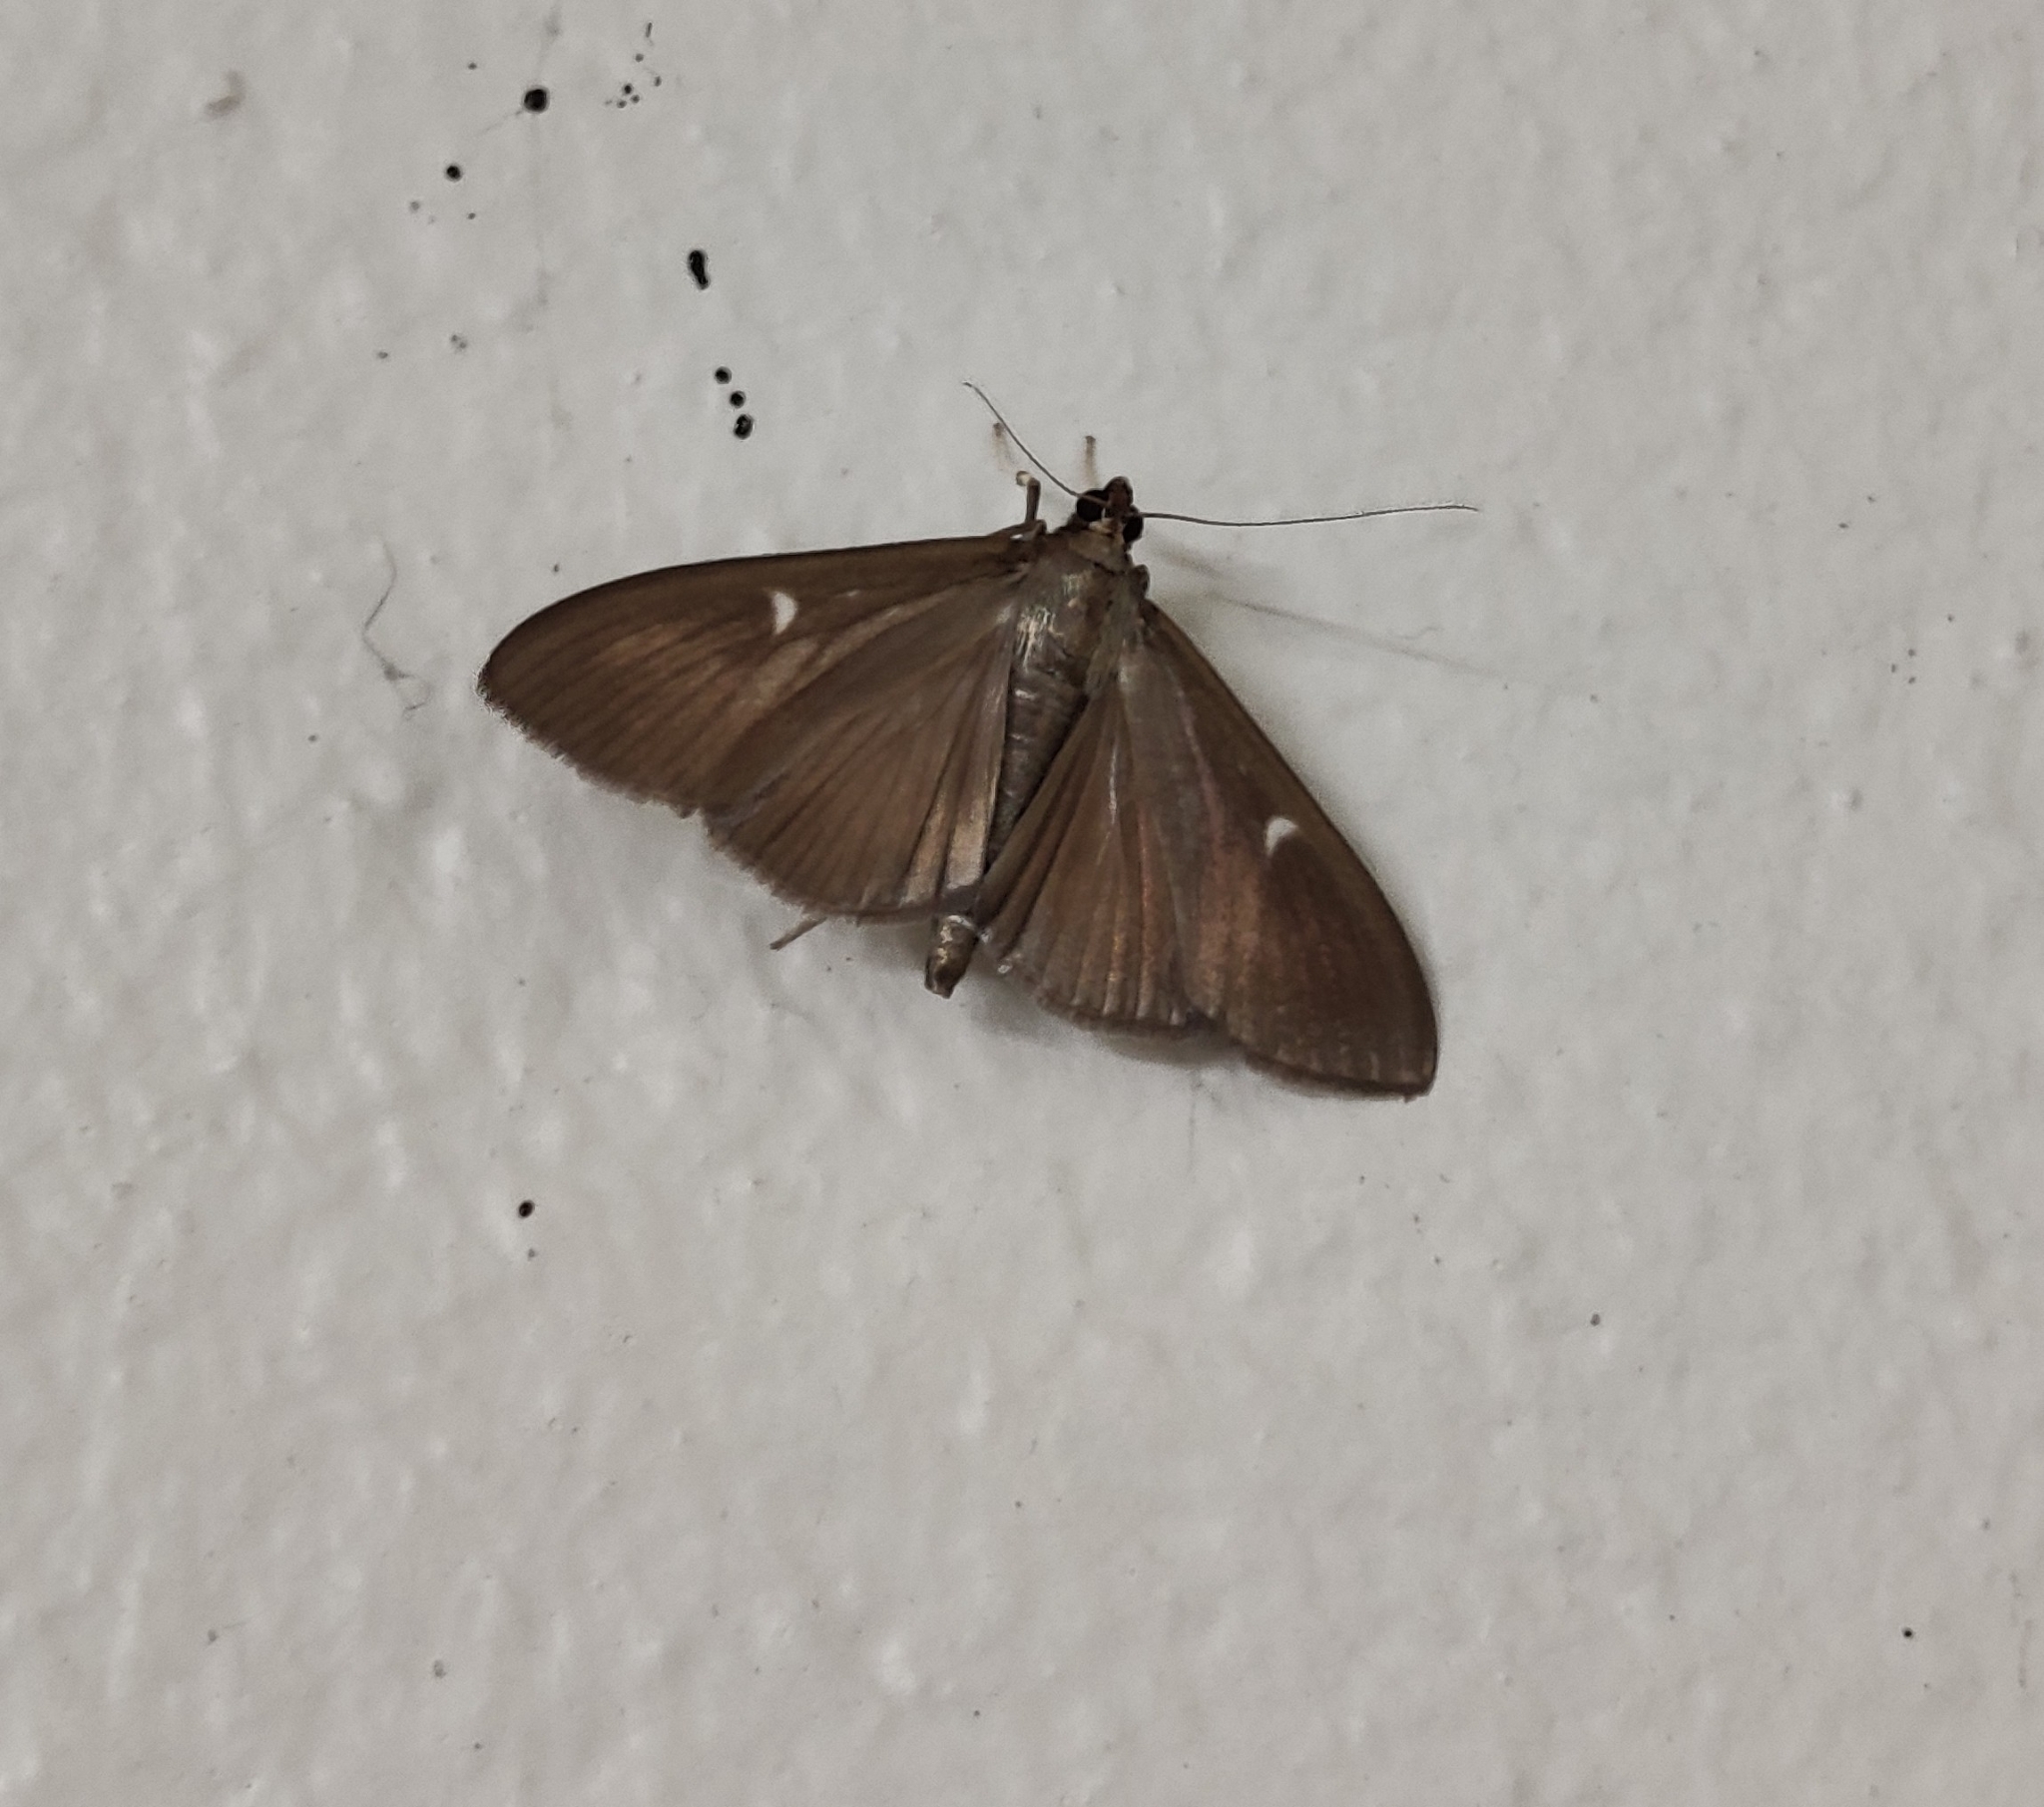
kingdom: Animalia
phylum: Arthropoda
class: Insecta
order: Lepidoptera
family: Crambidae
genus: Cydalima
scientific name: Cydalima perspectalis
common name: Box tree moth
